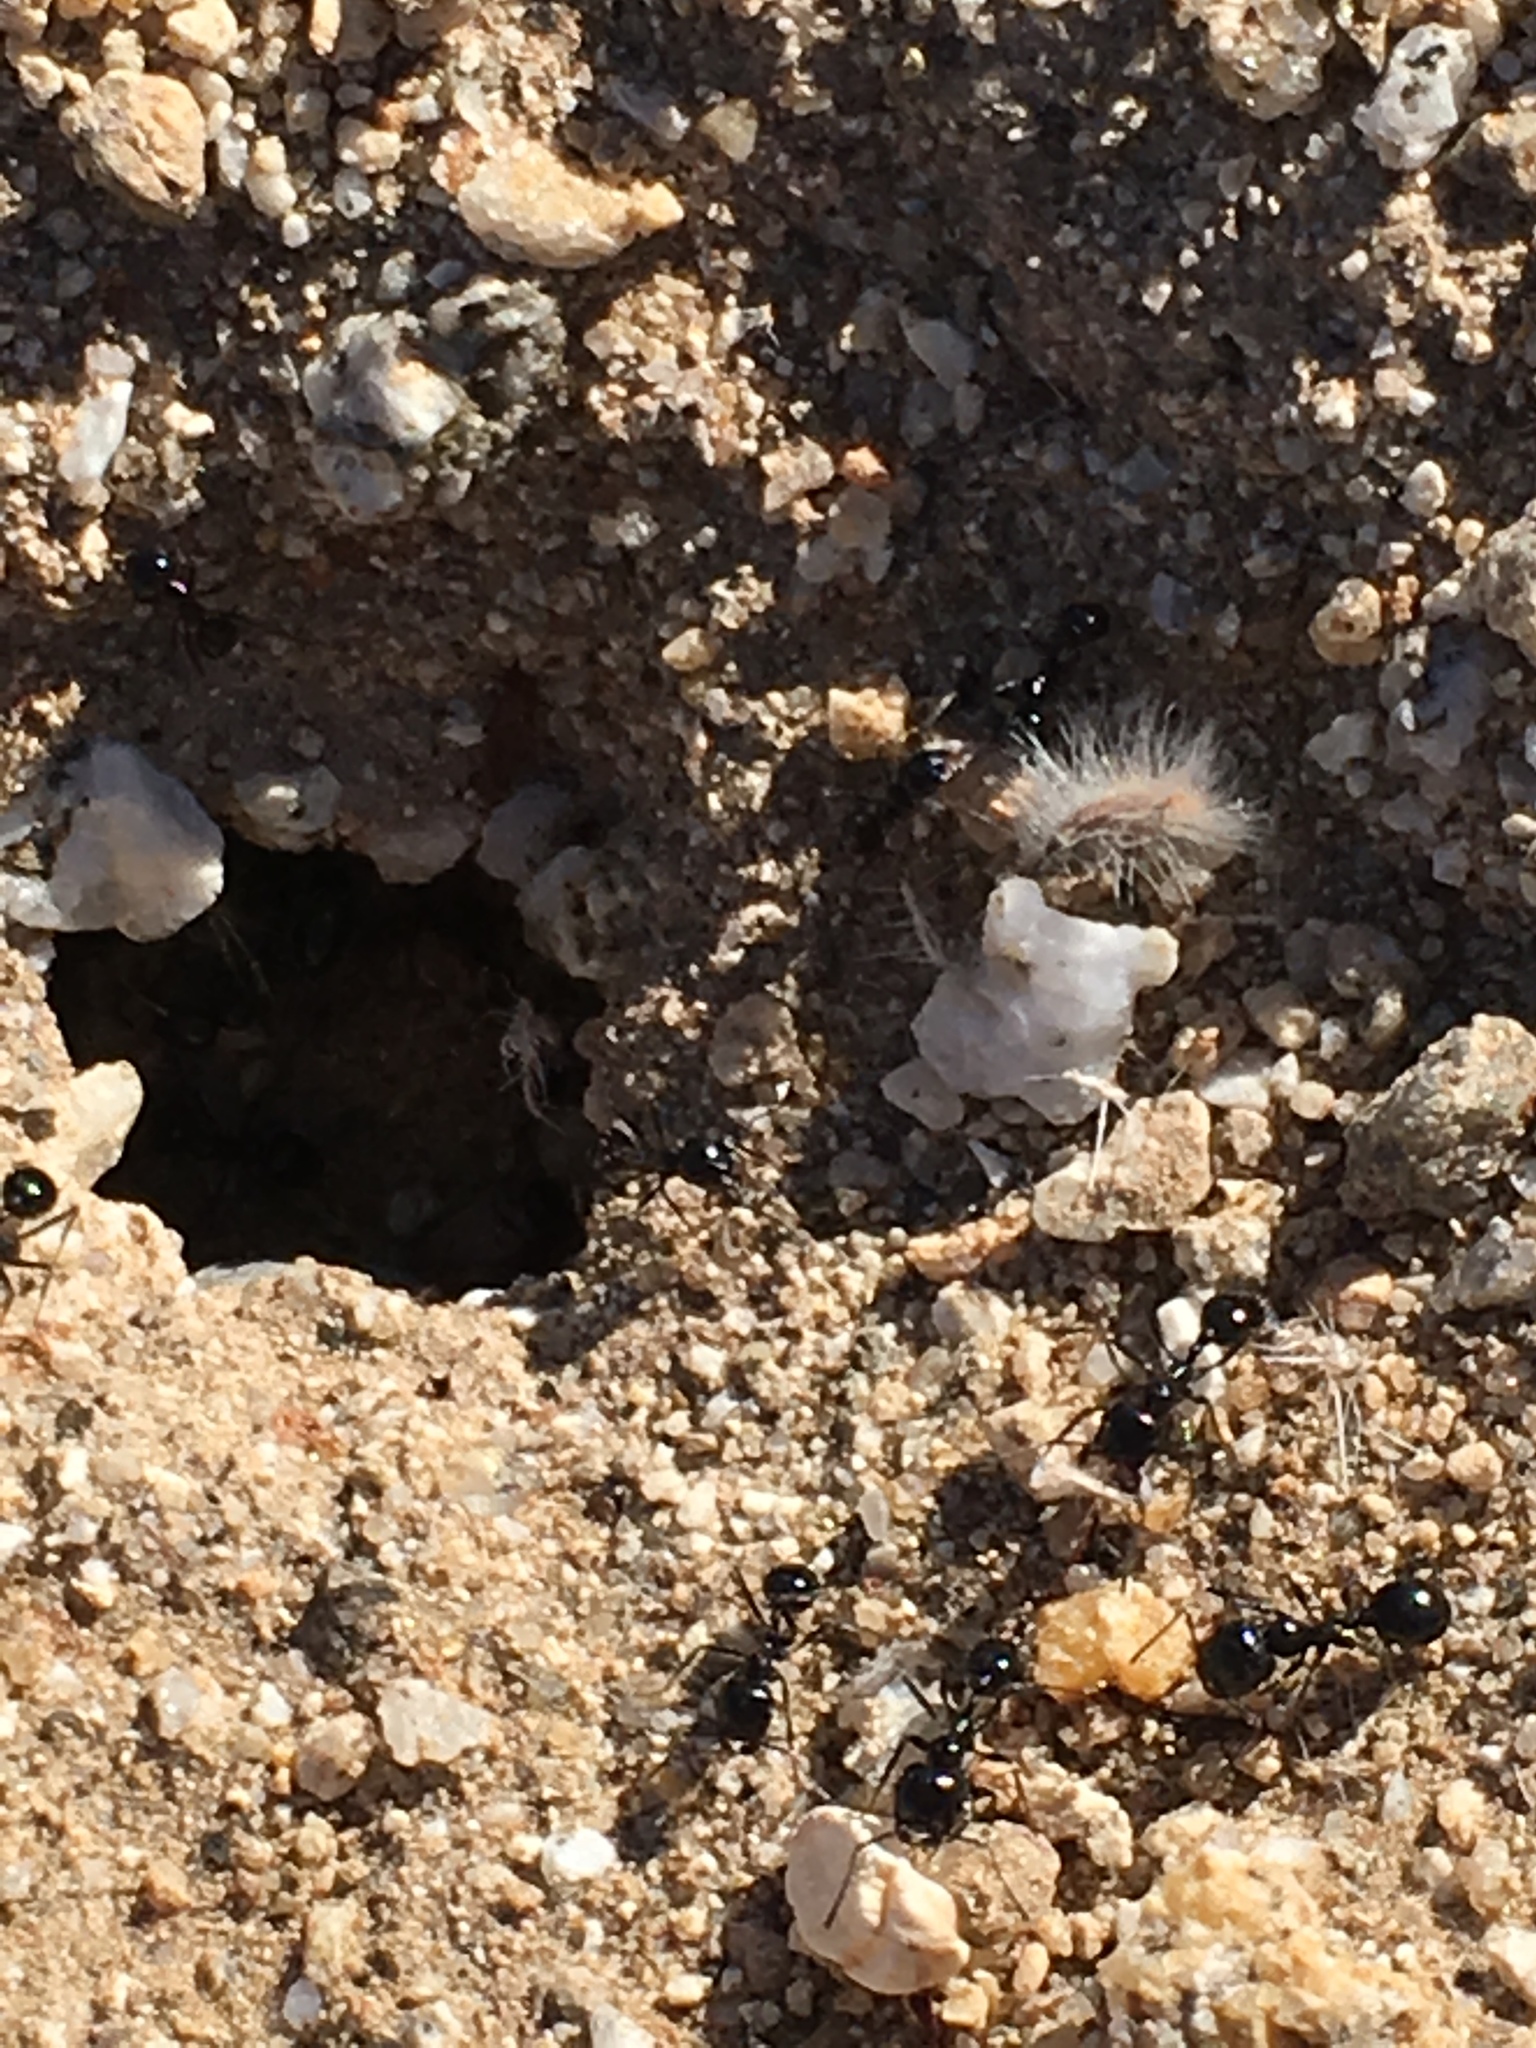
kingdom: Animalia
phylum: Arthropoda
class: Insecta
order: Hymenoptera
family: Formicidae
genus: Messor
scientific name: Messor pergandei
